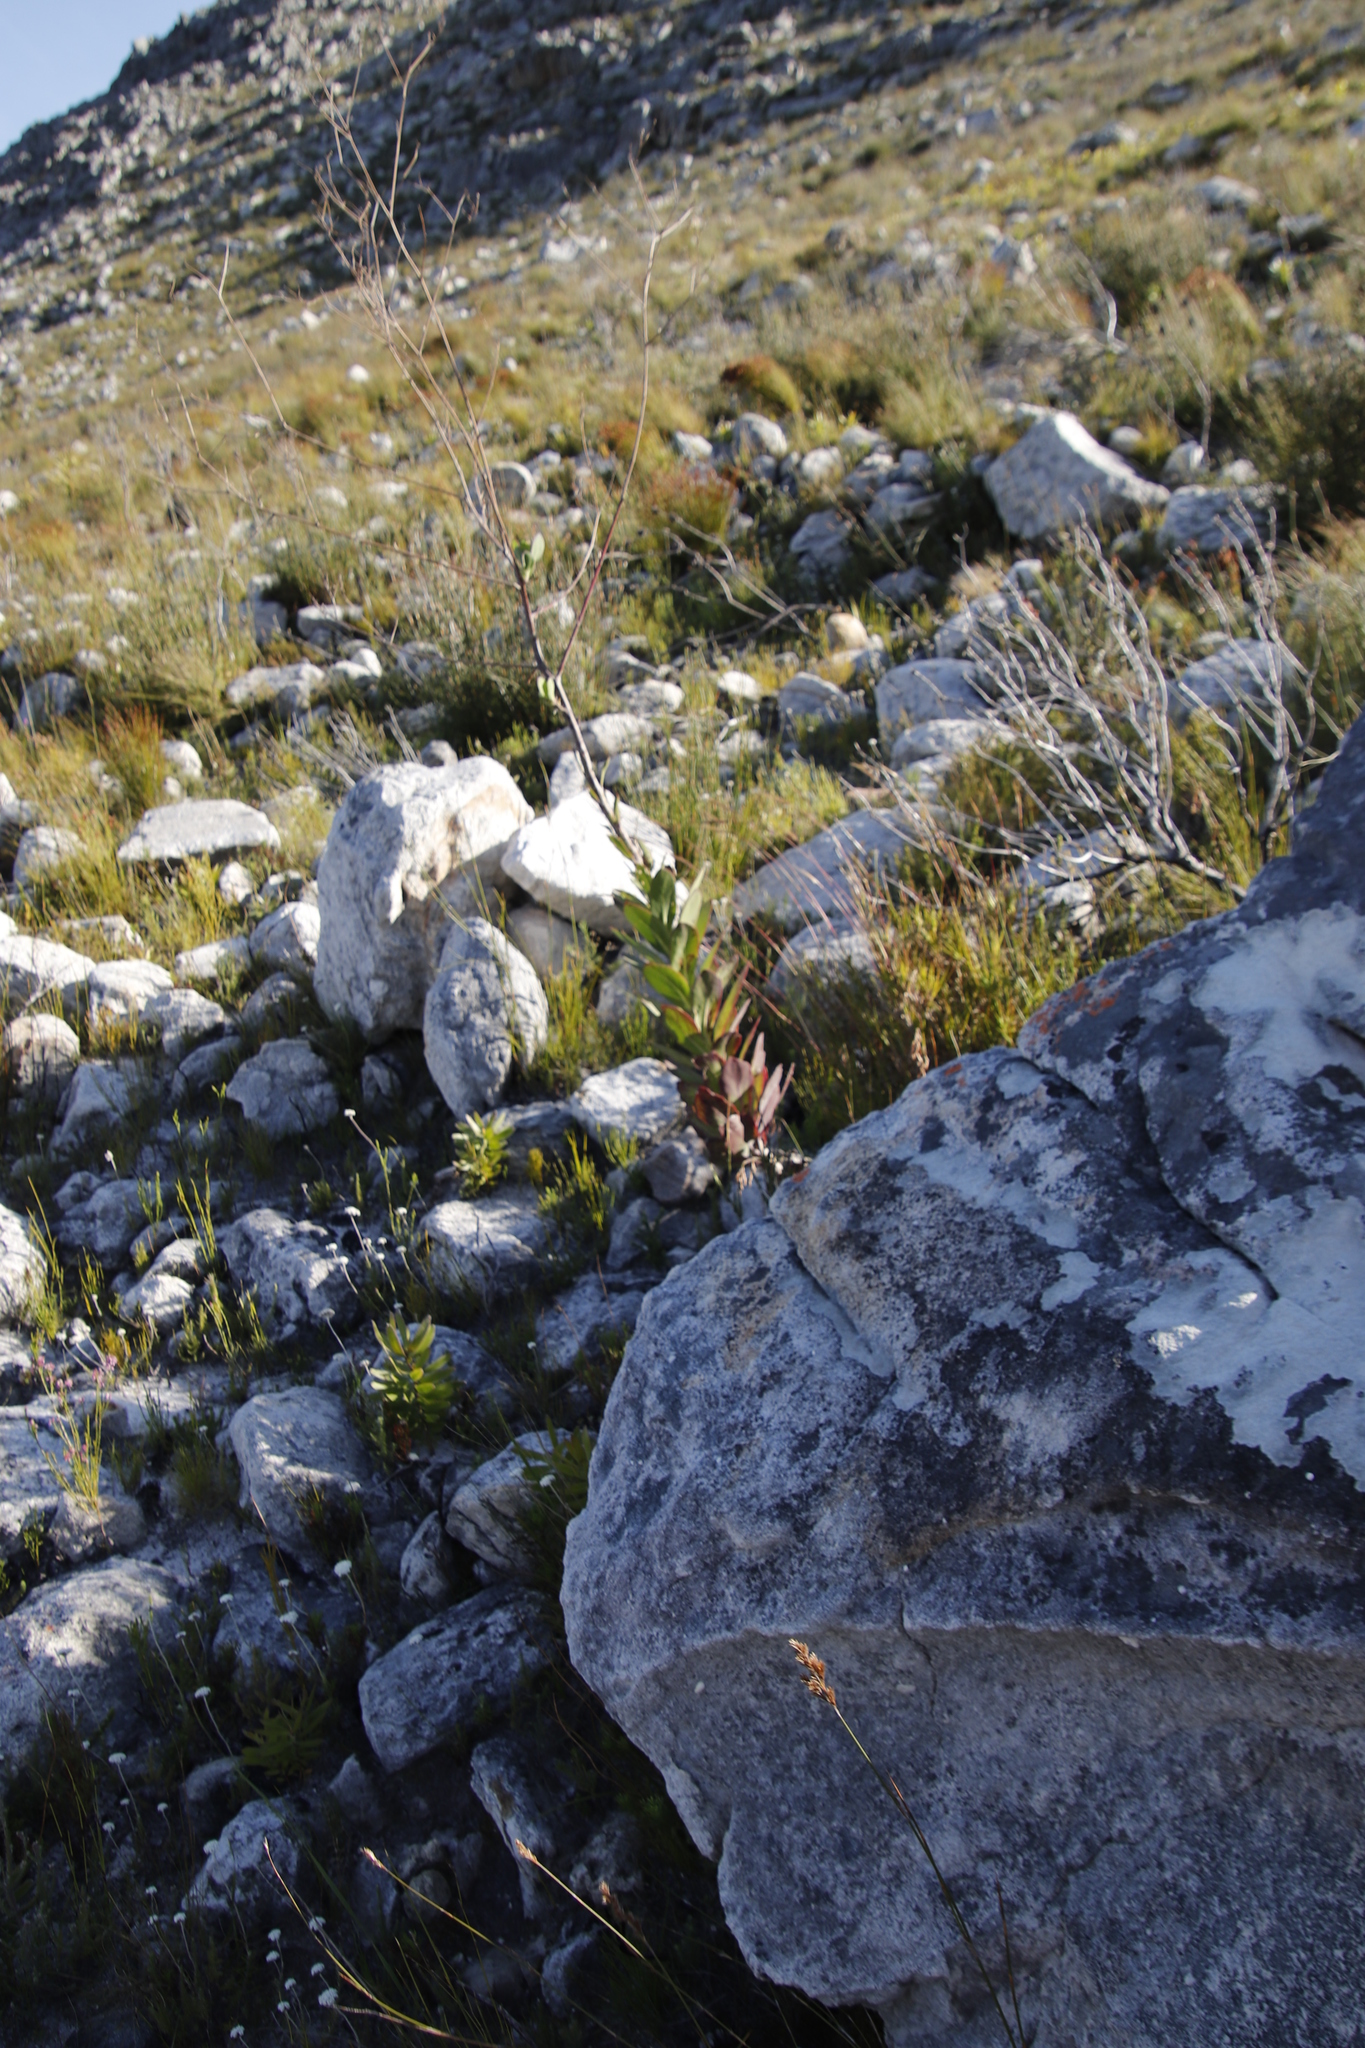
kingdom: Plantae
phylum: Tracheophyta
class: Magnoliopsida
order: Asterales
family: Asteraceae
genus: Othonna
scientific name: Othonna quinquedentata
